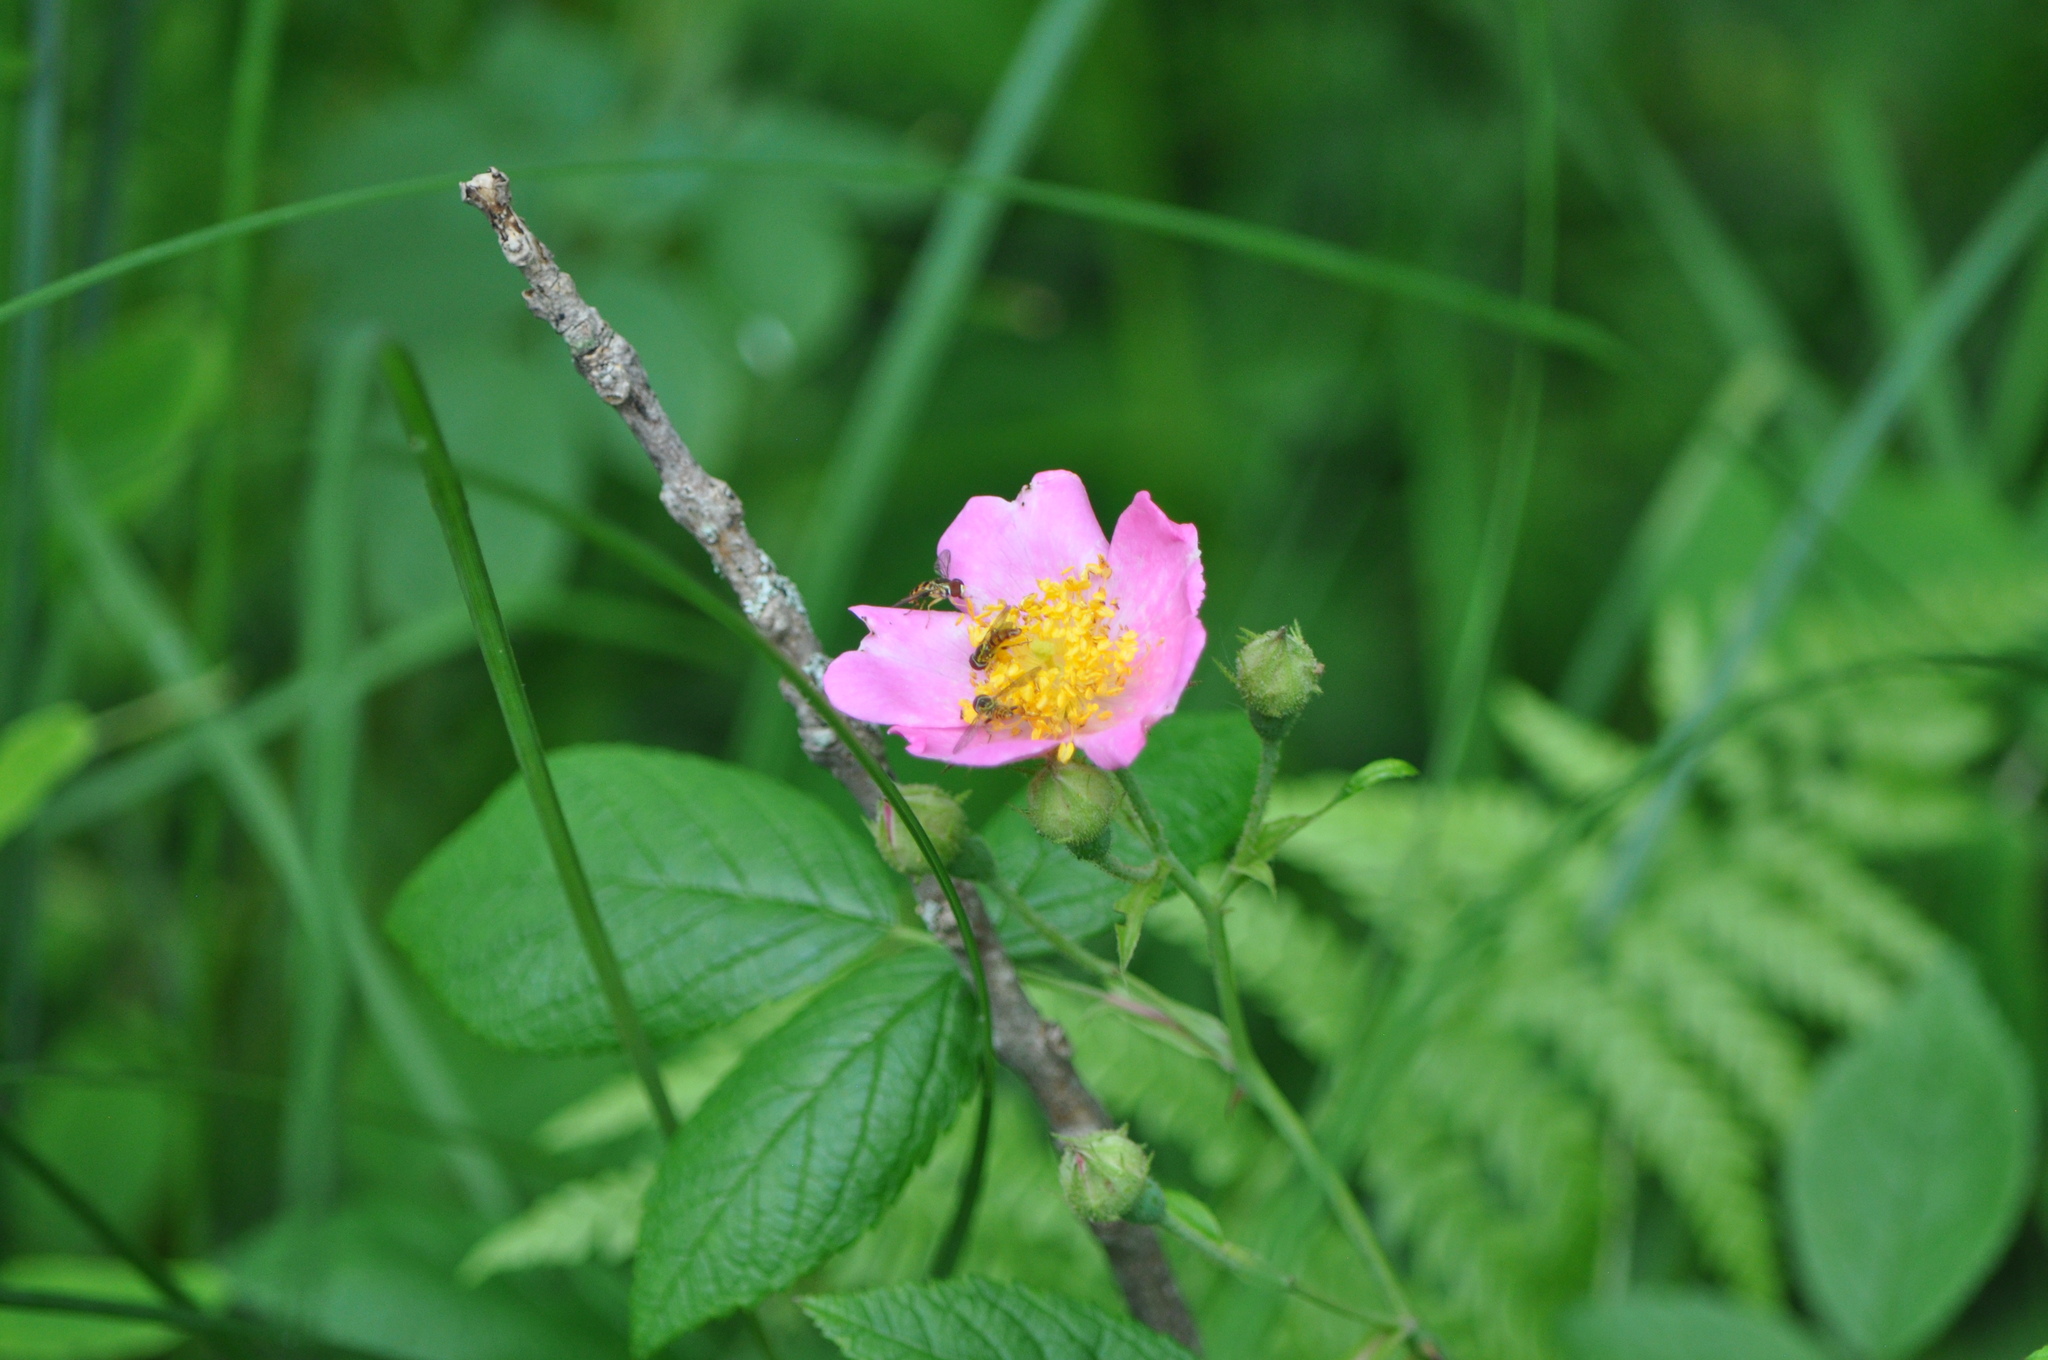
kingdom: Plantae
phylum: Tracheophyta
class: Magnoliopsida
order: Rosales
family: Rosaceae
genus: Rosa
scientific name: Rosa setigera
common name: Prairie rose
